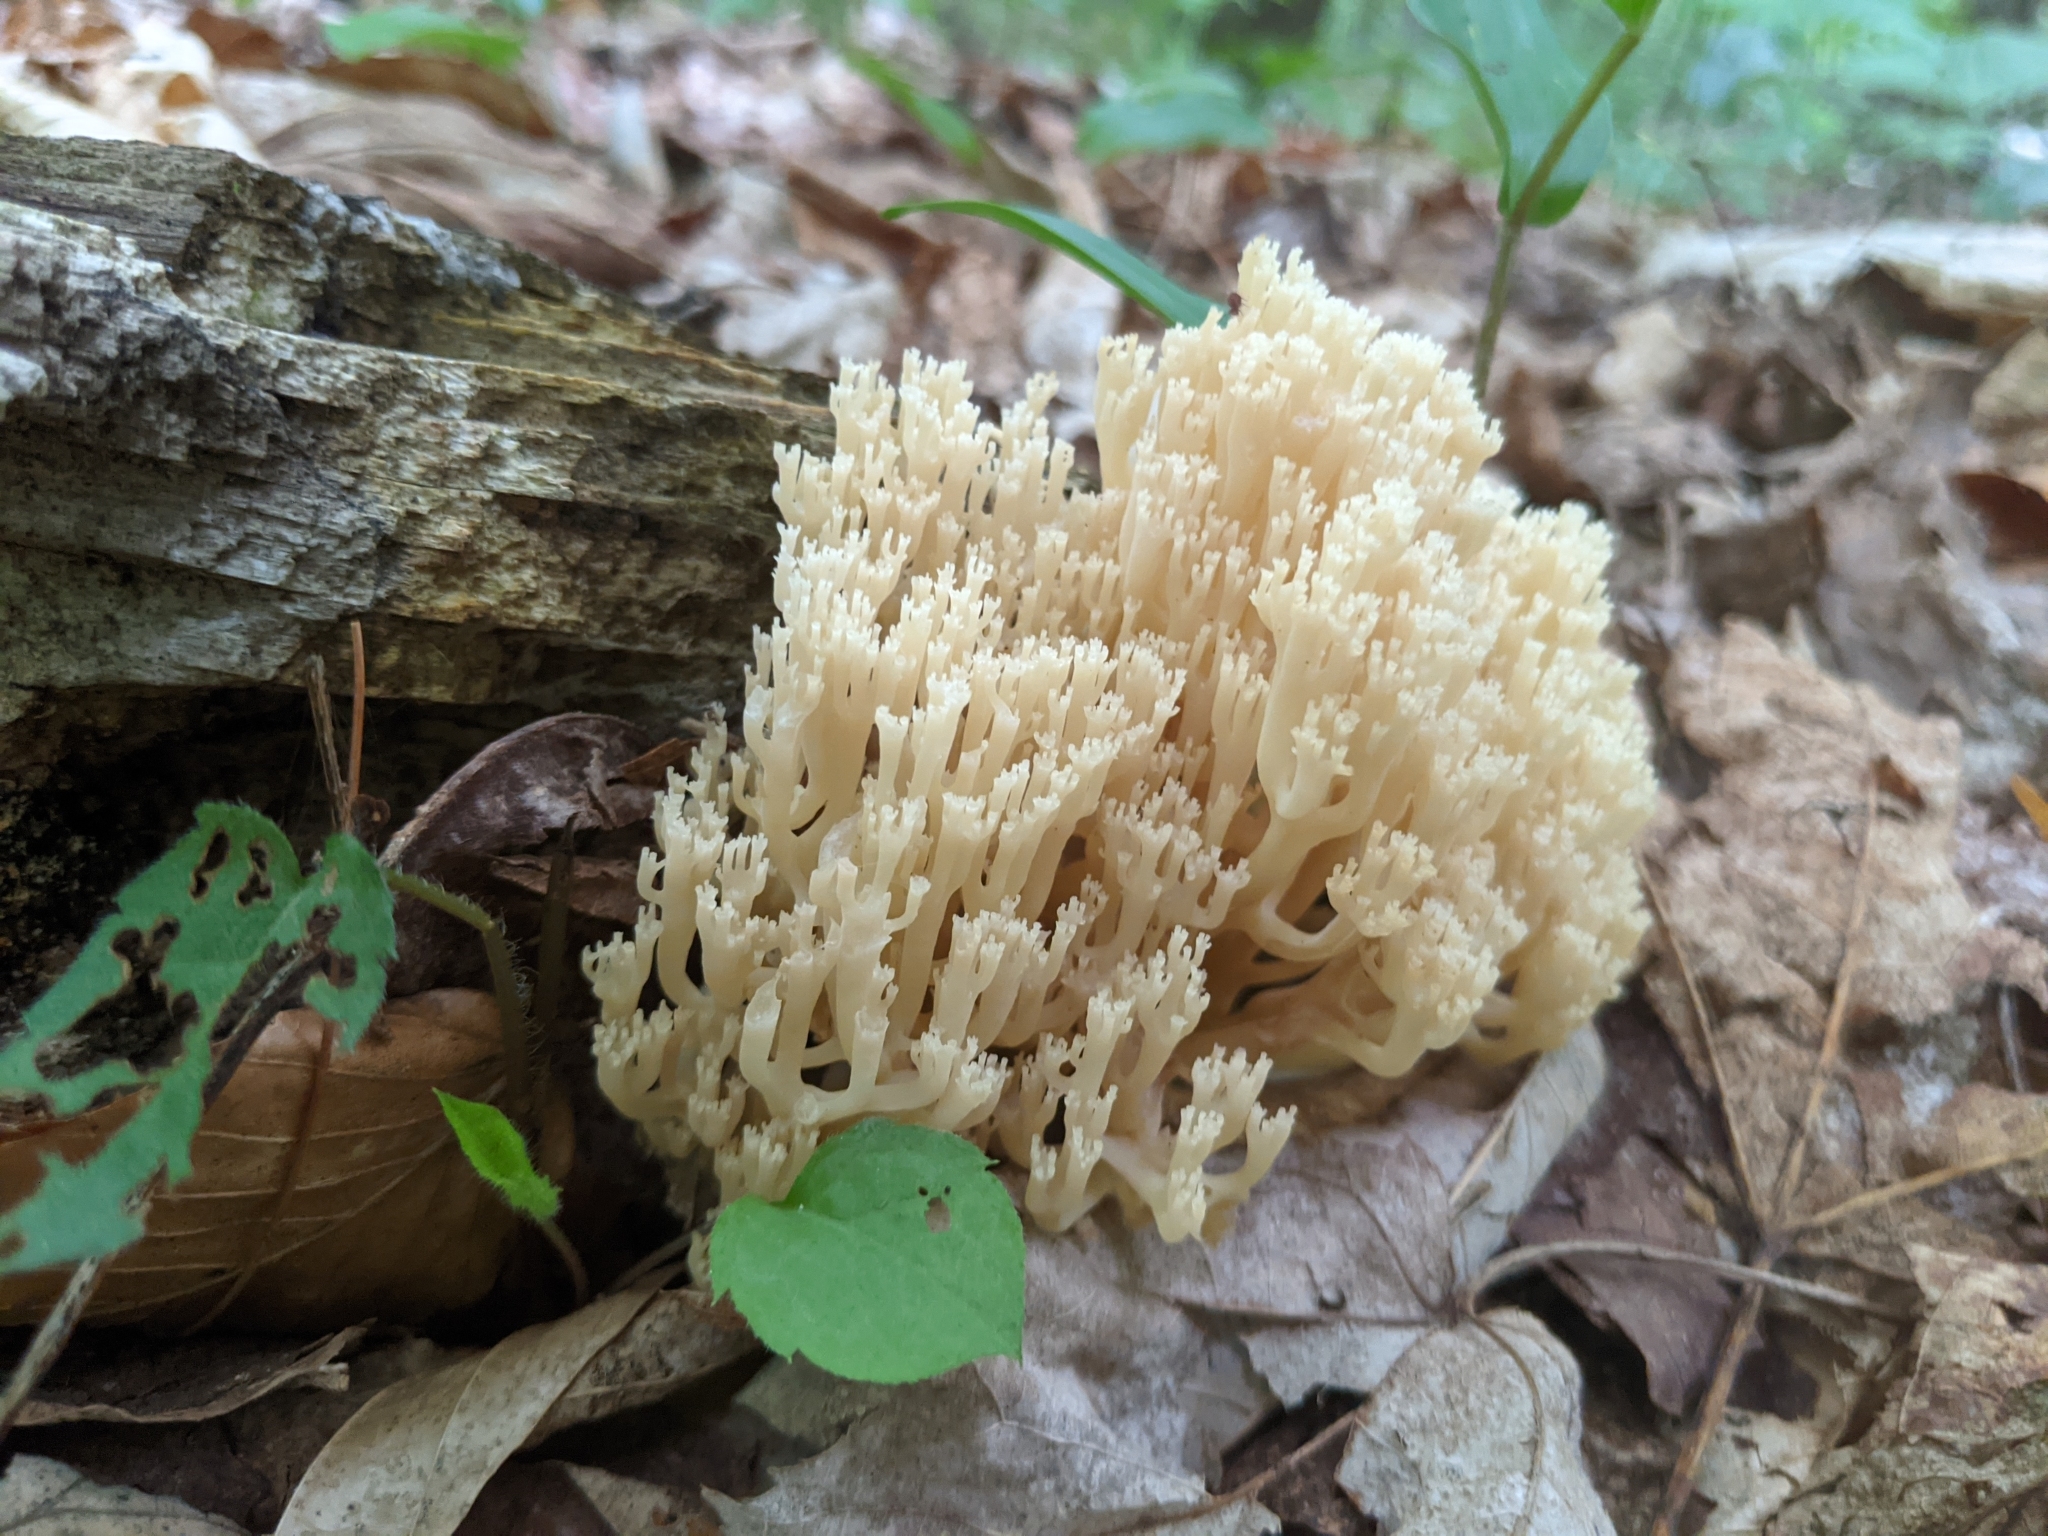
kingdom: Fungi
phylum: Basidiomycota
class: Agaricomycetes
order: Russulales
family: Auriscalpiaceae
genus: Artomyces
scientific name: Artomyces pyxidatus
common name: Crown-tipped coral fungus
